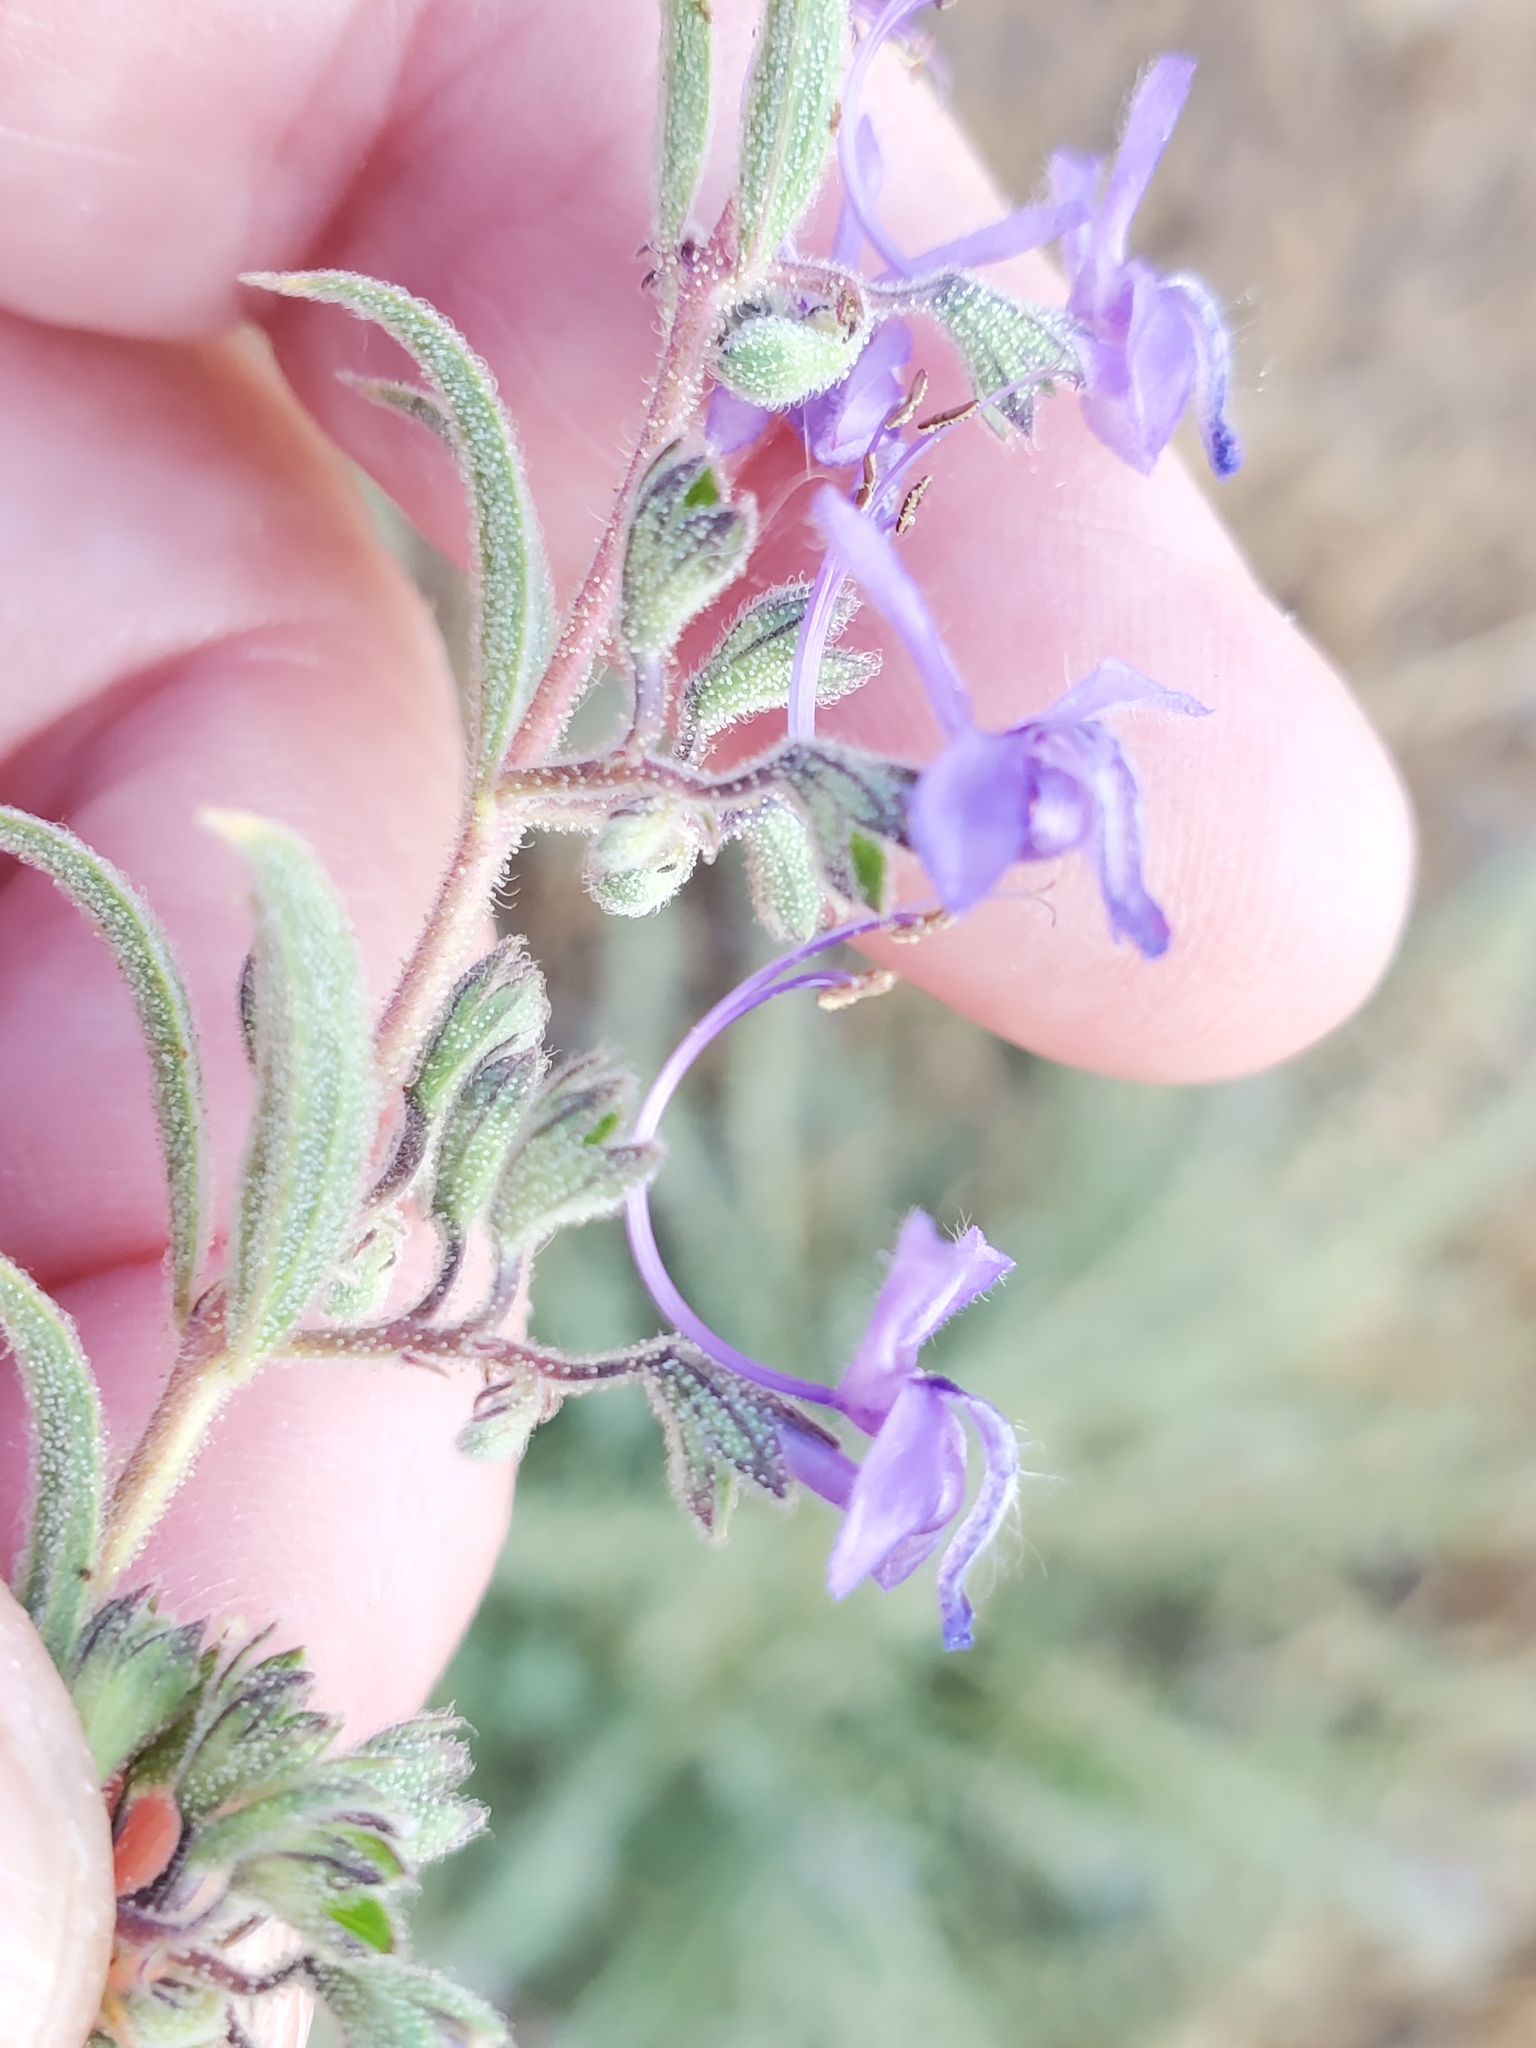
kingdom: Plantae
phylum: Tracheophyta
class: Magnoliopsida
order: Lamiales
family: Lamiaceae
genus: Trichostema
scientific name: Trichostema lanceolatum
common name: Vinegar-weed
